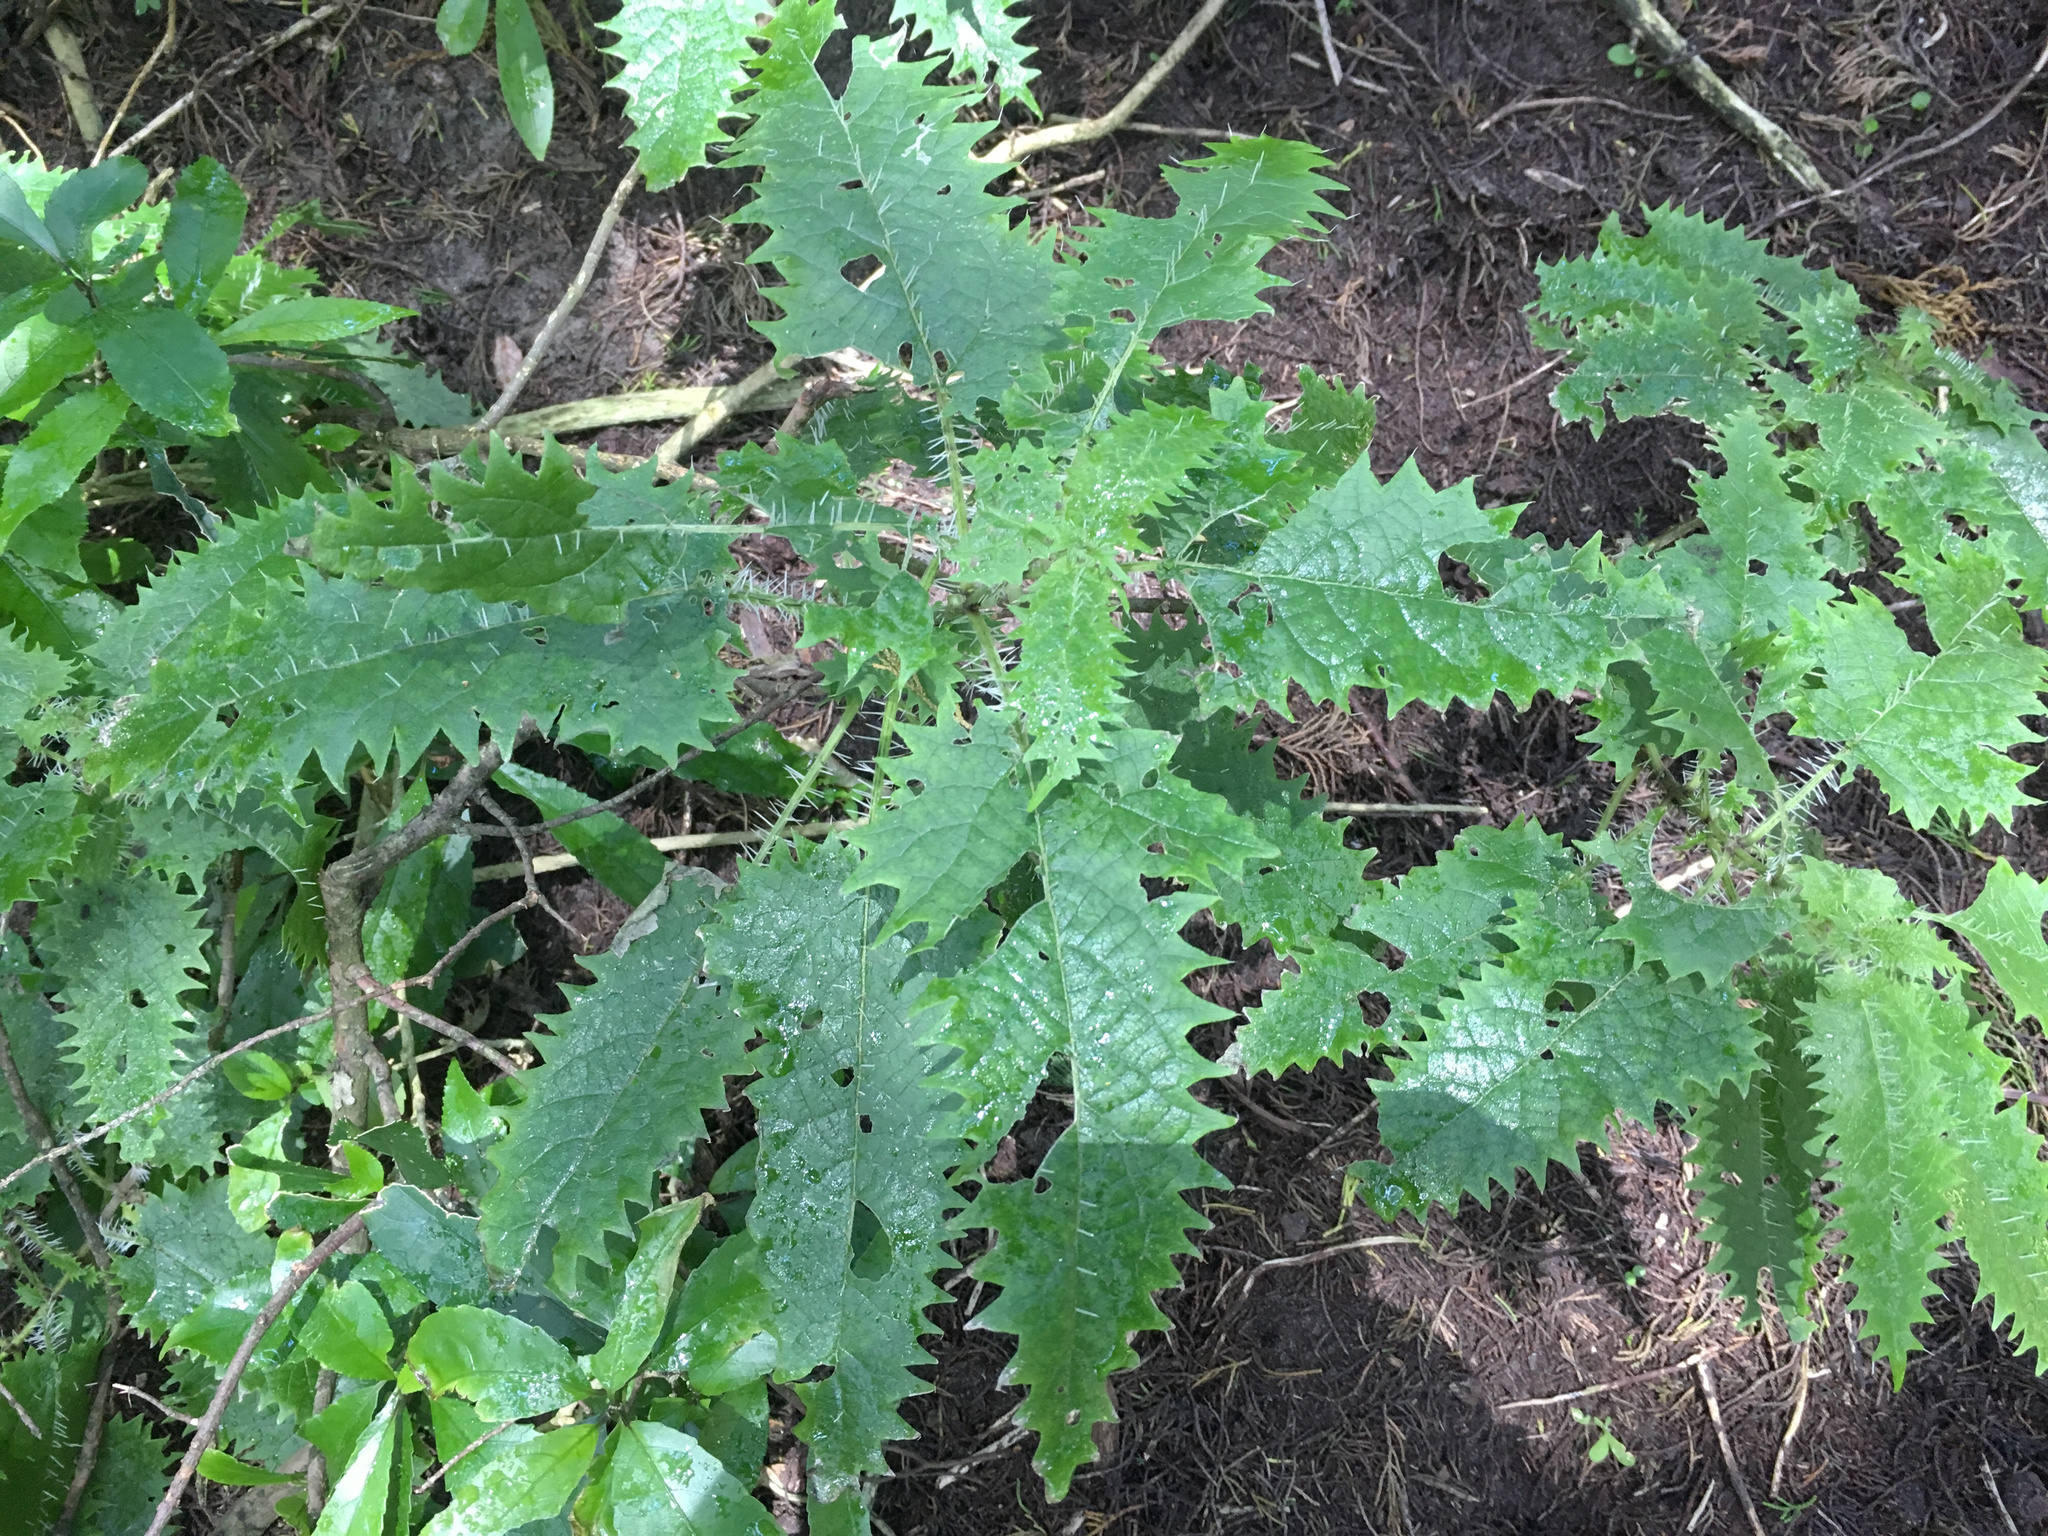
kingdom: Plantae
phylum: Tracheophyta
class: Magnoliopsida
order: Rosales
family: Urticaceae
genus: Urtica
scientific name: Urtica ferox
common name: Tree nettle
